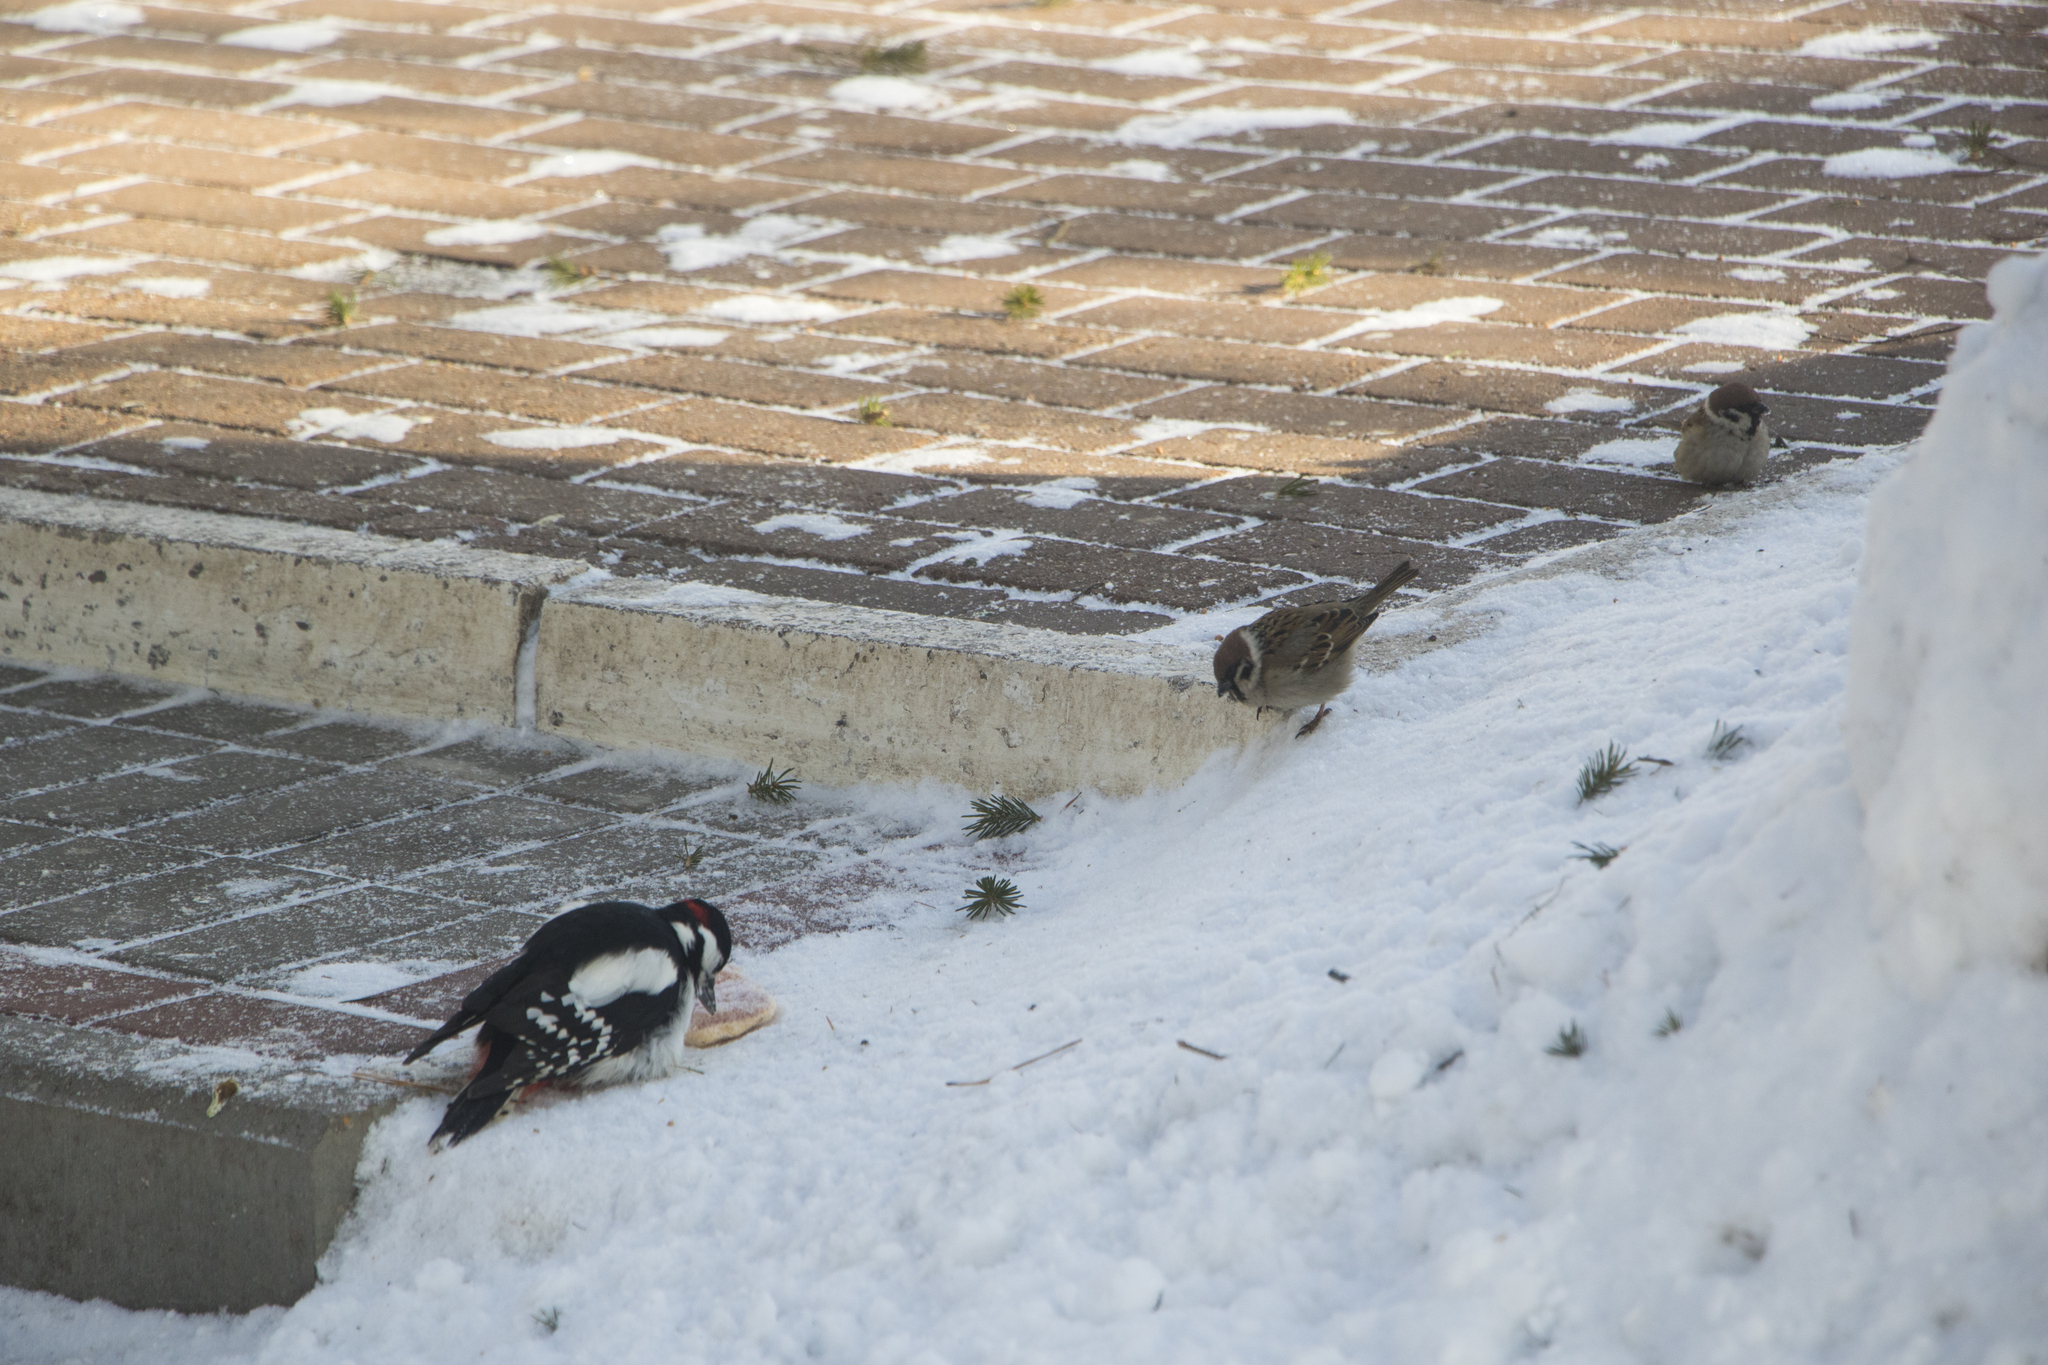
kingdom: Animalia
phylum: Chordata
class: Aves
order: Passeriformes
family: Passeridae
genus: Passer
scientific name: Passer montanus
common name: Eurasian tree sparrow
